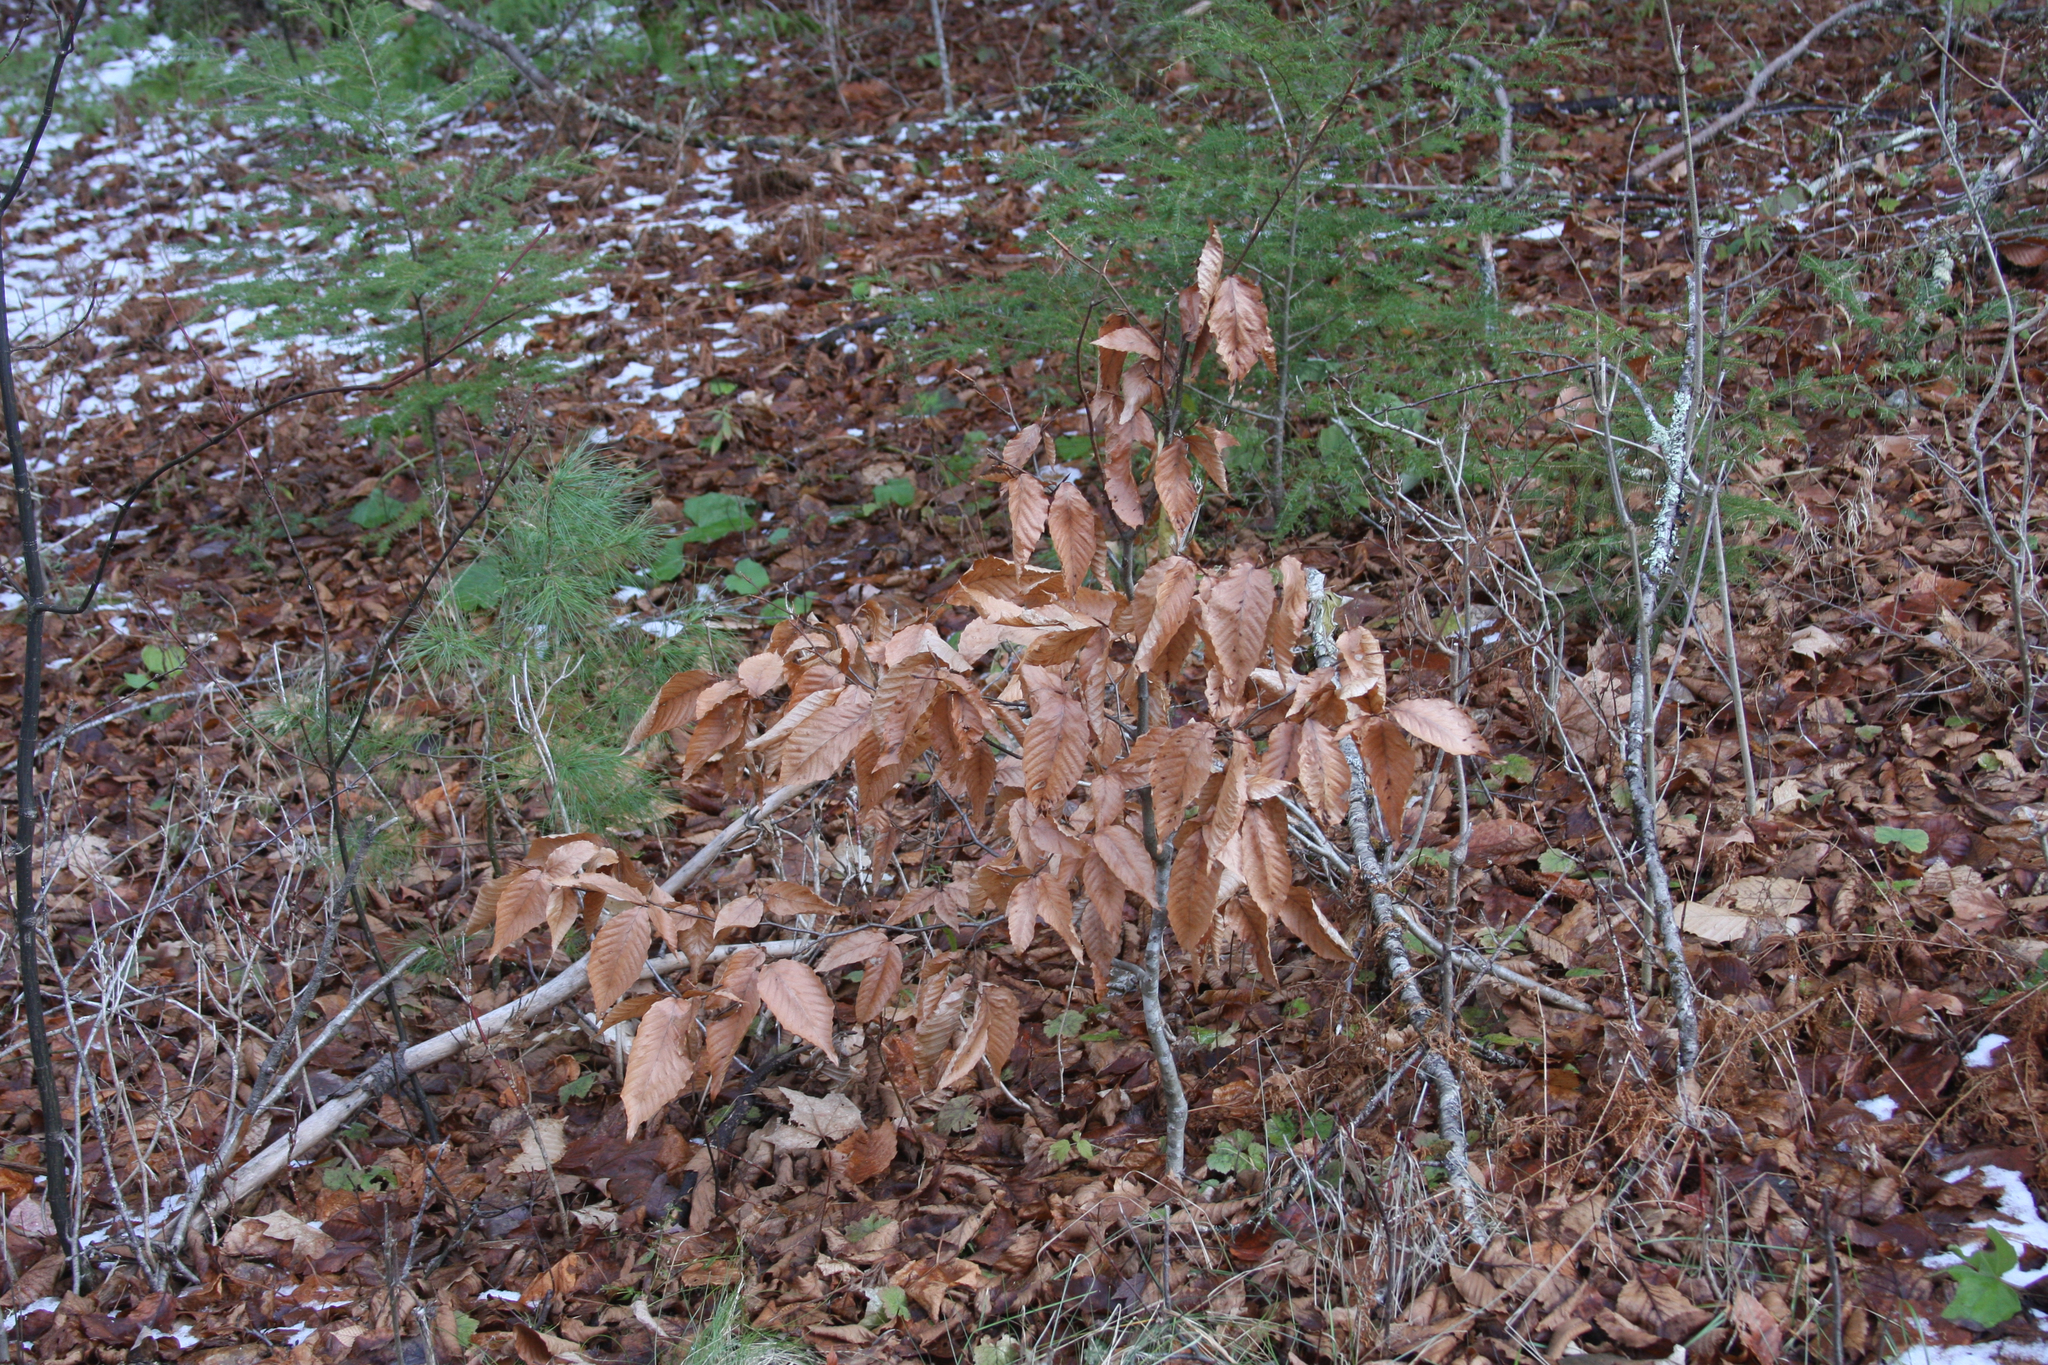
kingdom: Plantae
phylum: Tracheophyta
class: Magnoliopsida
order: Fagales
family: Fagaceae
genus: Fagus
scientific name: Fagus grandifolia
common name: American beech
